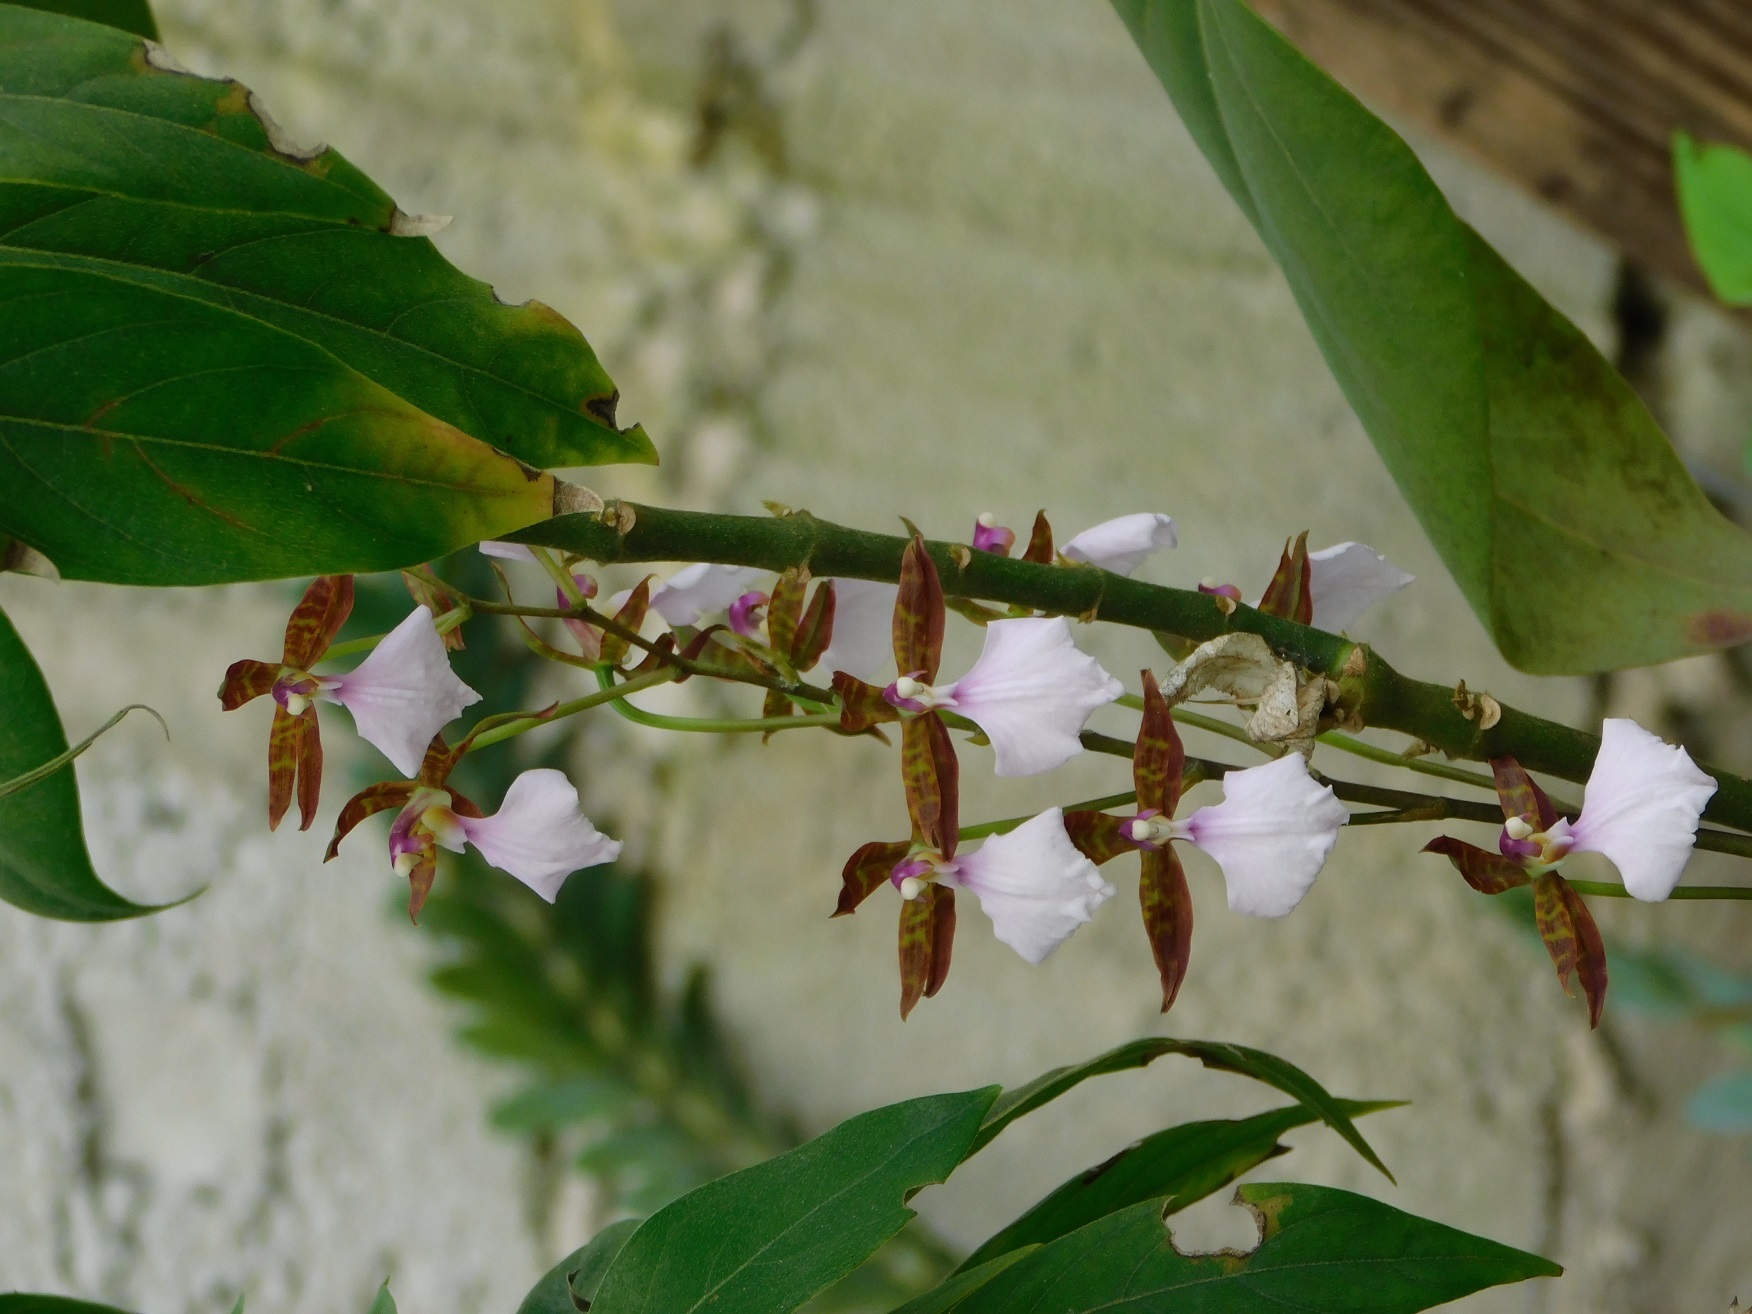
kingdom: Plantae
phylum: Tracheophyta
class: Liliopsida
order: Asparagales
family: Orchidaceae
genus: Rhynchostele
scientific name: Rhynchostele bictoniensis
